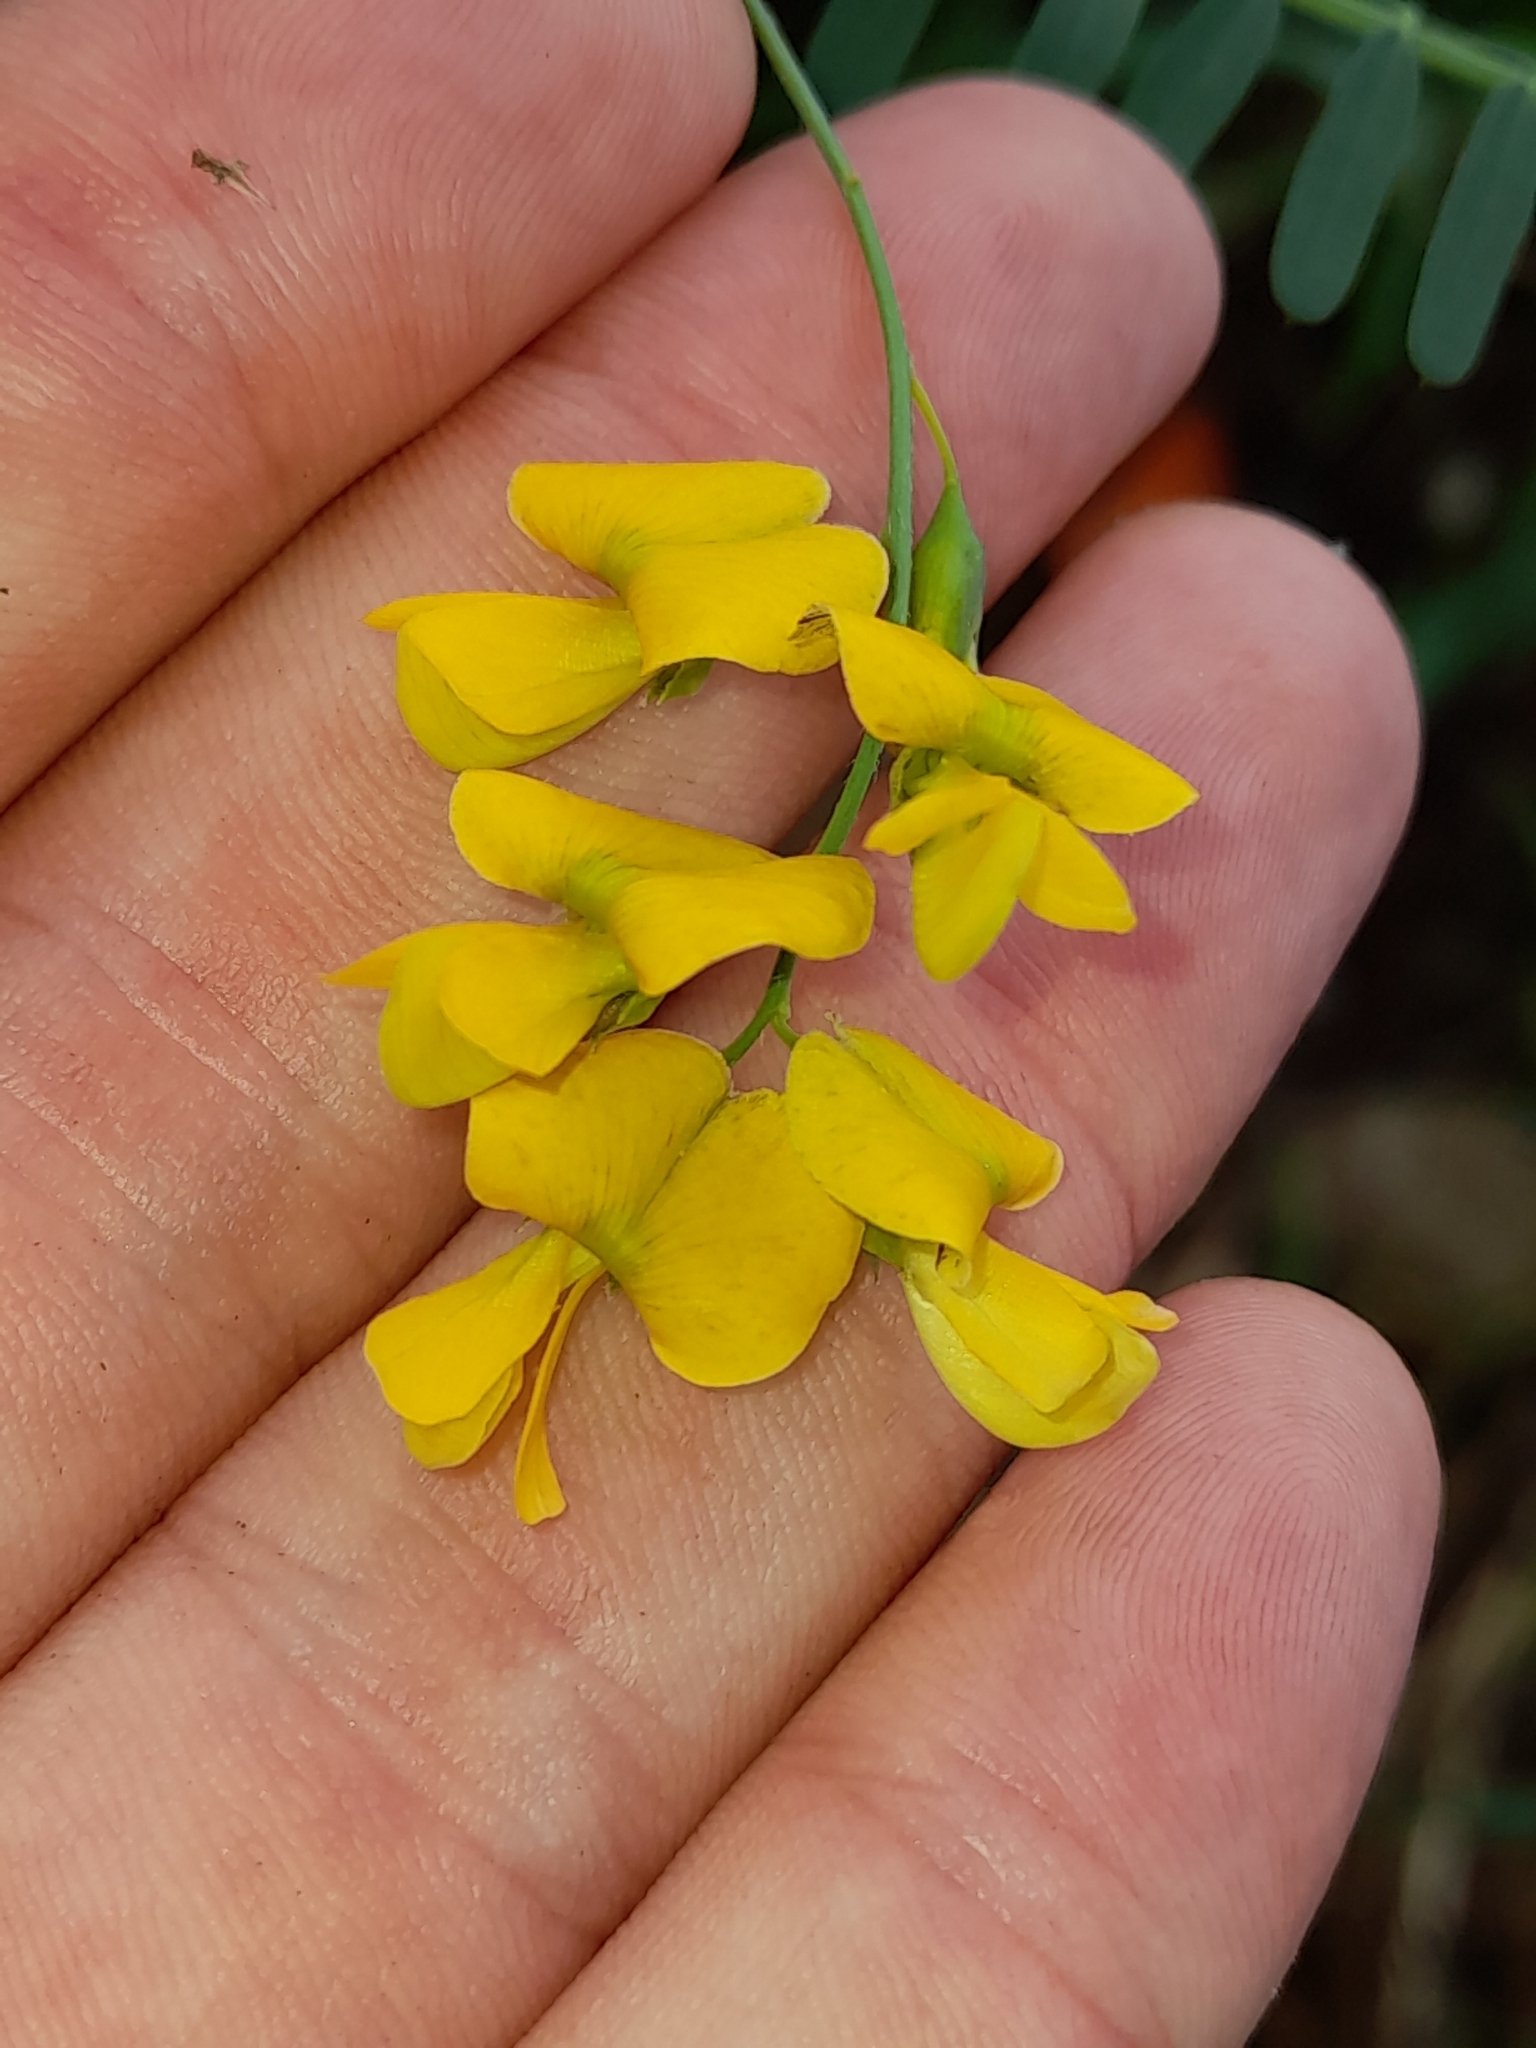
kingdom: Plantae
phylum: Tracheophyta
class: Magnoliopsida
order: Fabales
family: Fabaceae
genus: Sesbania
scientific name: Sesbania cannabina
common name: Canicha
